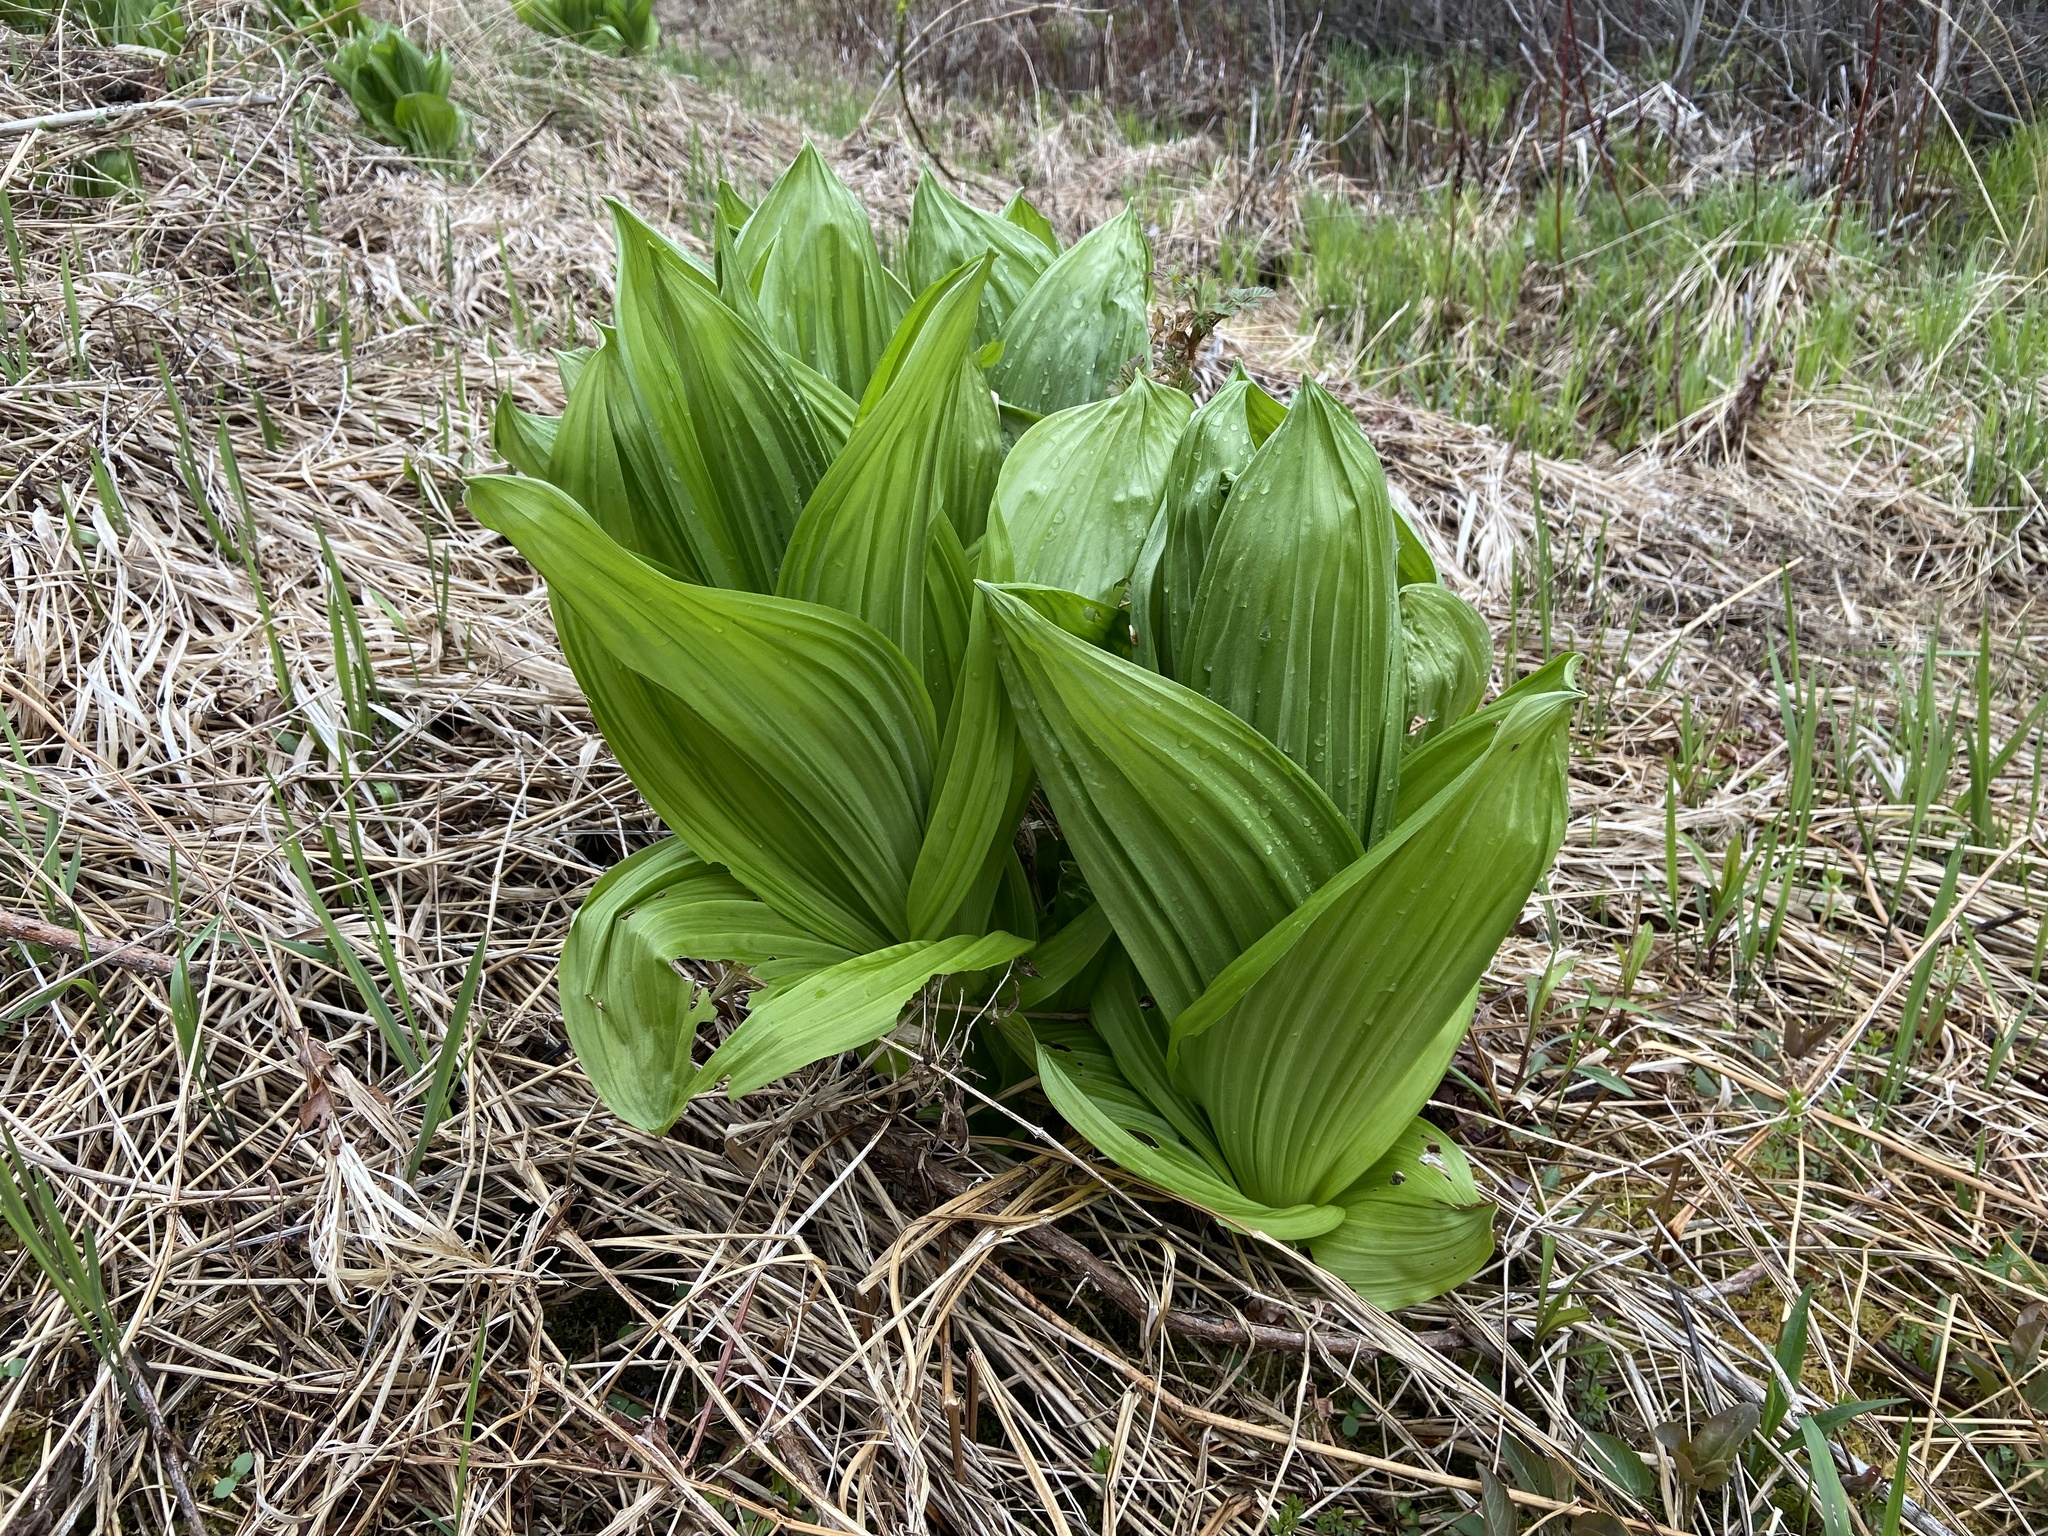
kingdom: Plantae
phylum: Tracheophyta
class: Liliopsida
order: Liliales
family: Melanthiaceae
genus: Veratrum
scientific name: Veratrum viride
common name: American false hellebore
